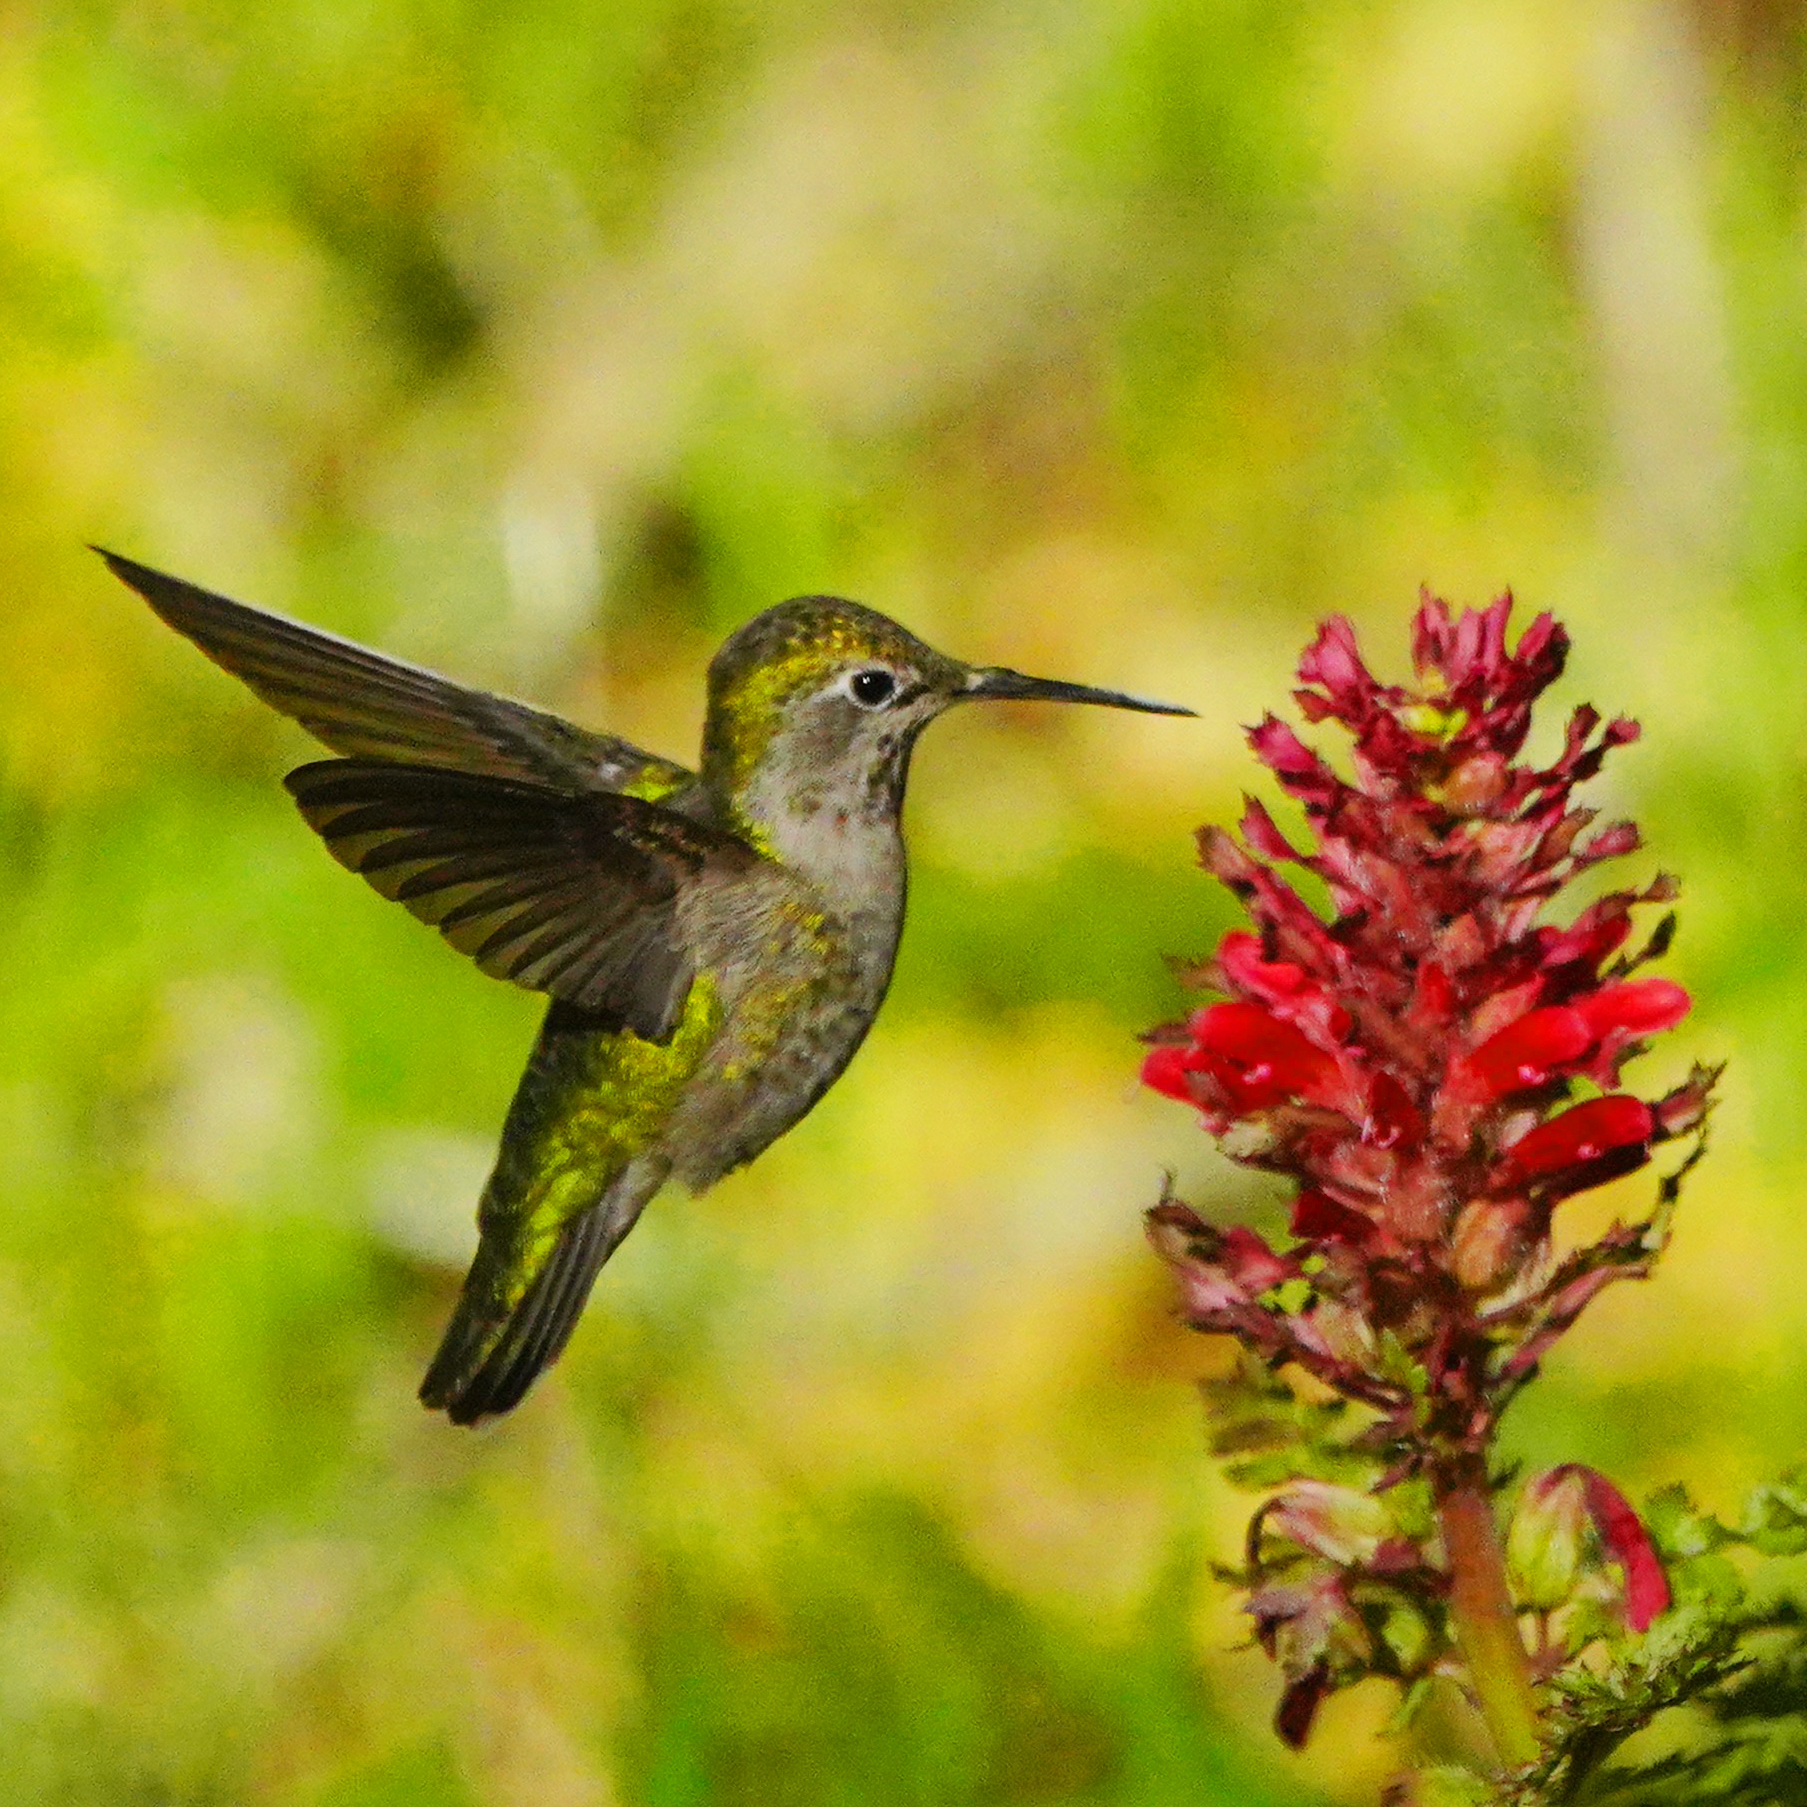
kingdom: Animalia
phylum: Chordata
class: Aves
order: Apodiformes
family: Trochilidae
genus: Calypte
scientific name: Calypte anna
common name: Anna's hummingbird
